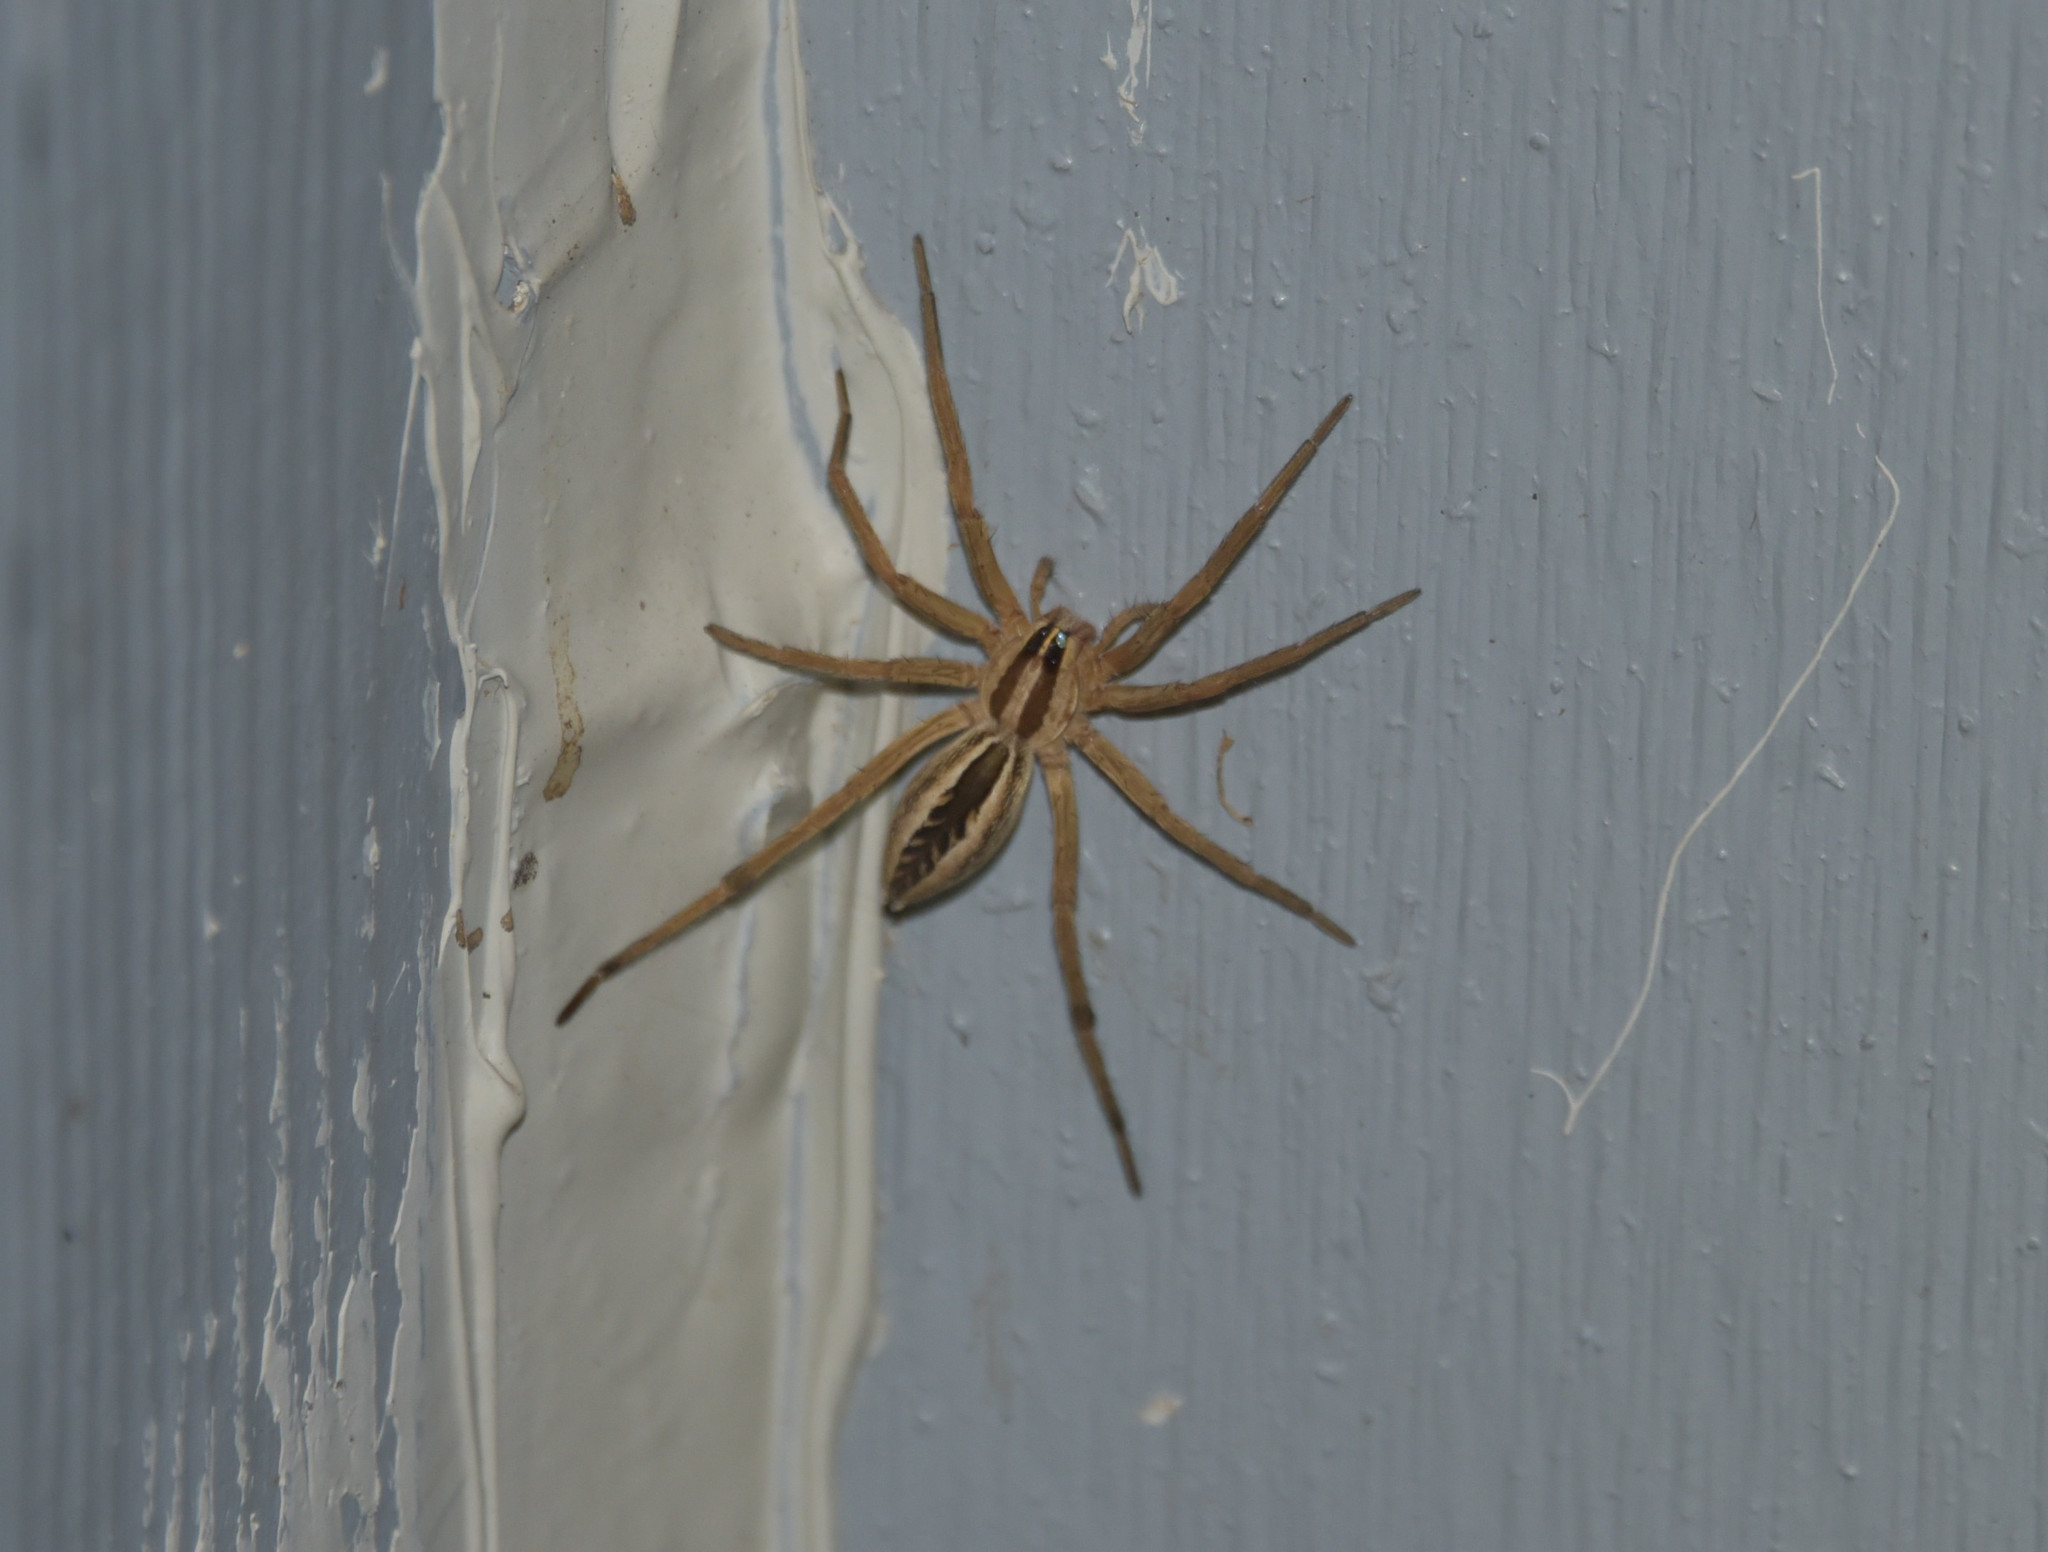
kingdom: Animalia
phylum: Arthropoda
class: Arachnida
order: Araneae
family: Lycosidae
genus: Rabidosa
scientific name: Rabidosa rabida
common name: Rabid wolf spider
